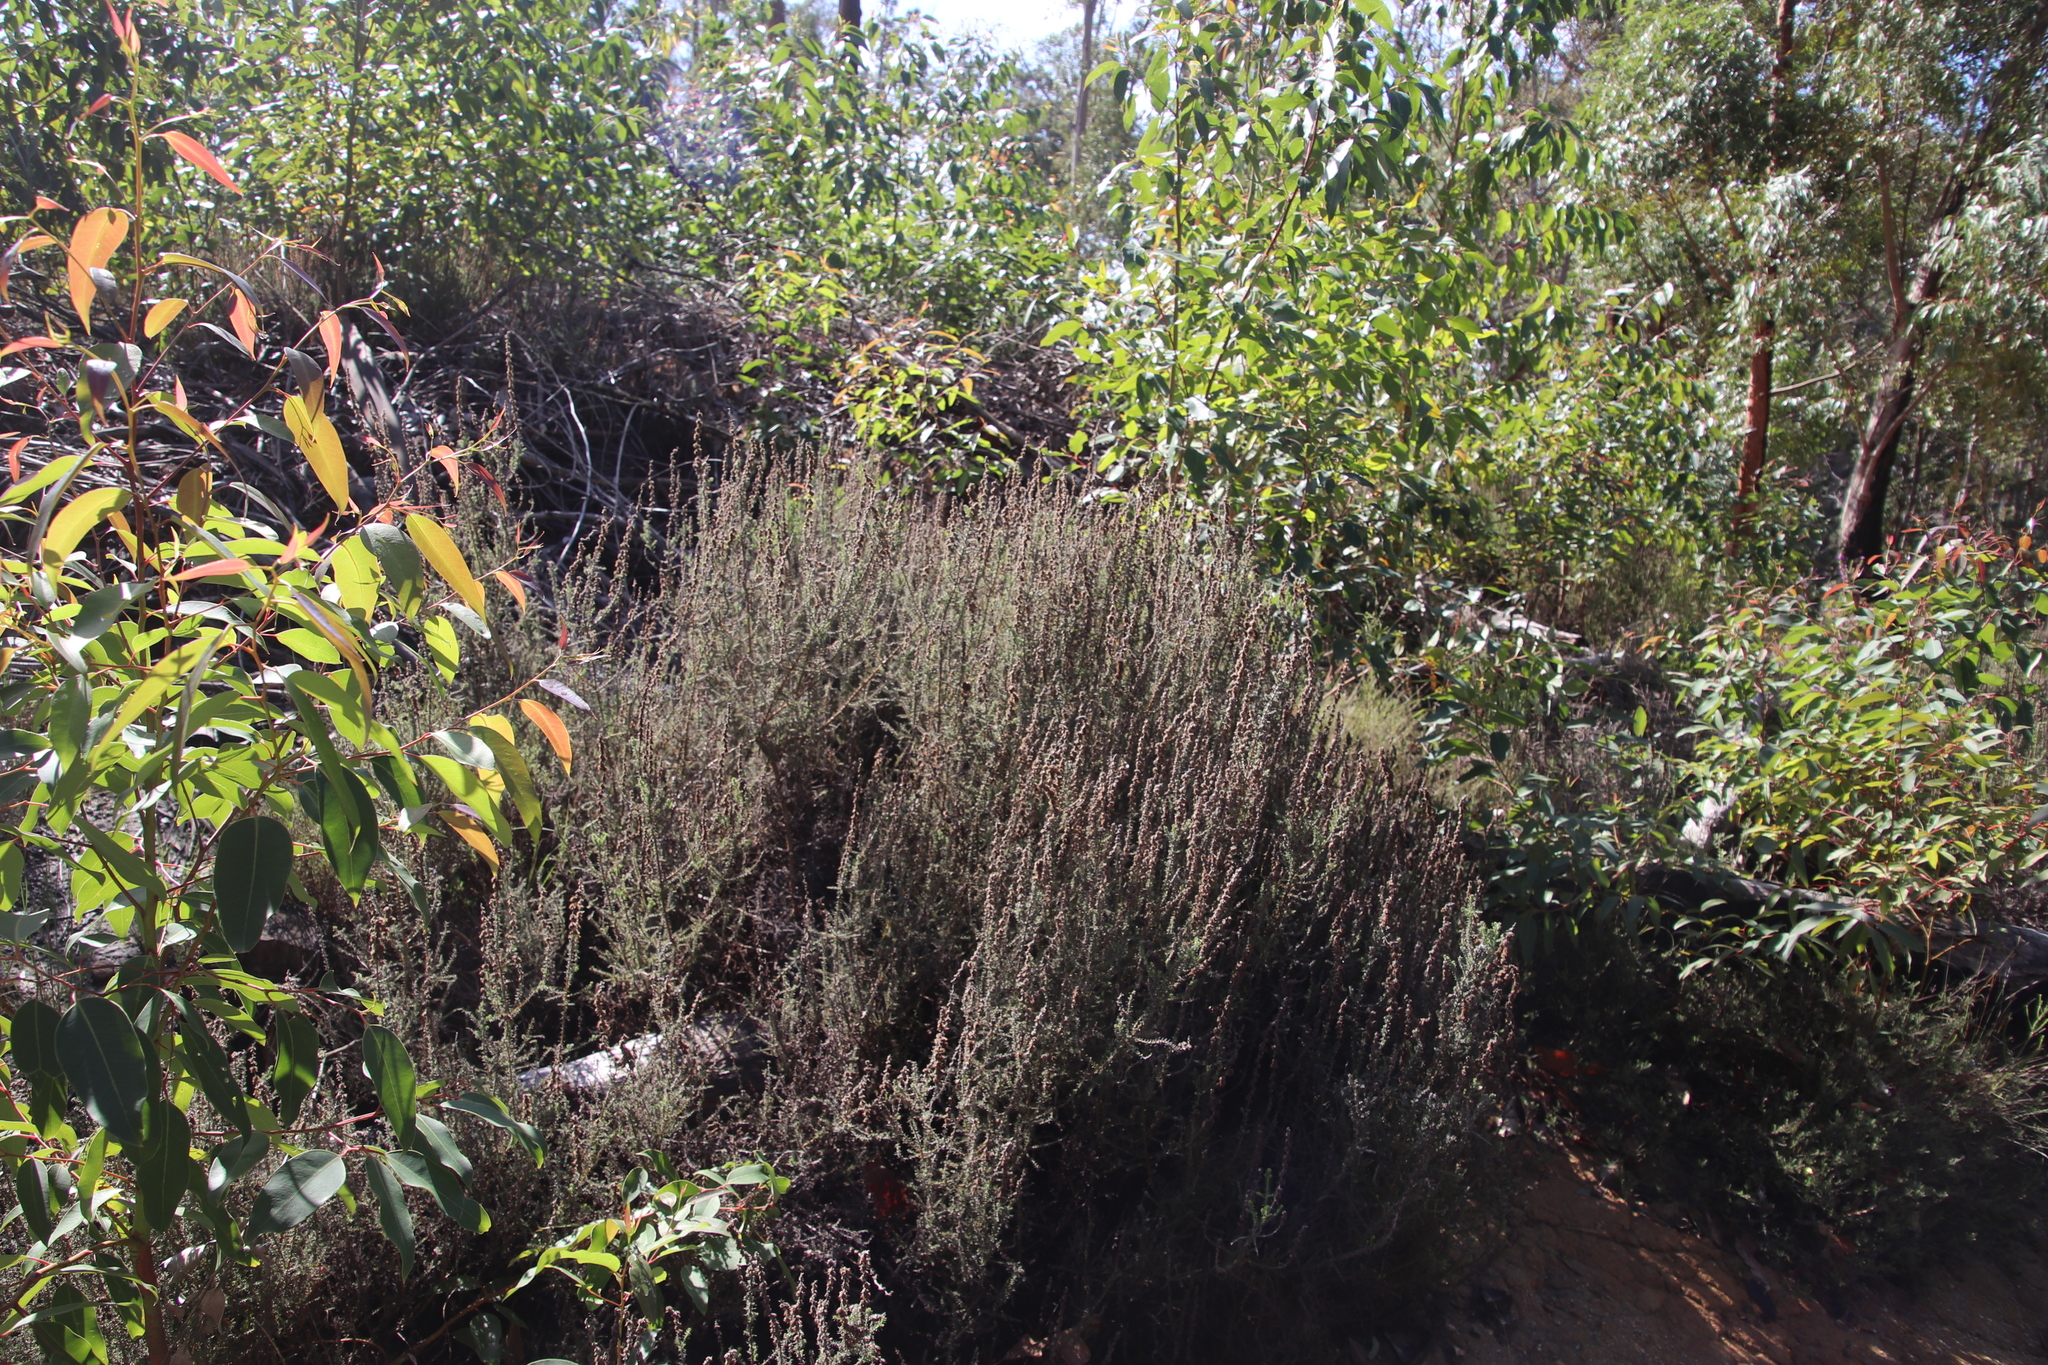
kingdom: Plantae
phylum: Tracheophyta
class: Magnoliopsida
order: Asterales
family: Asteraceae
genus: Seriphium
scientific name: Seriphium cinereum
